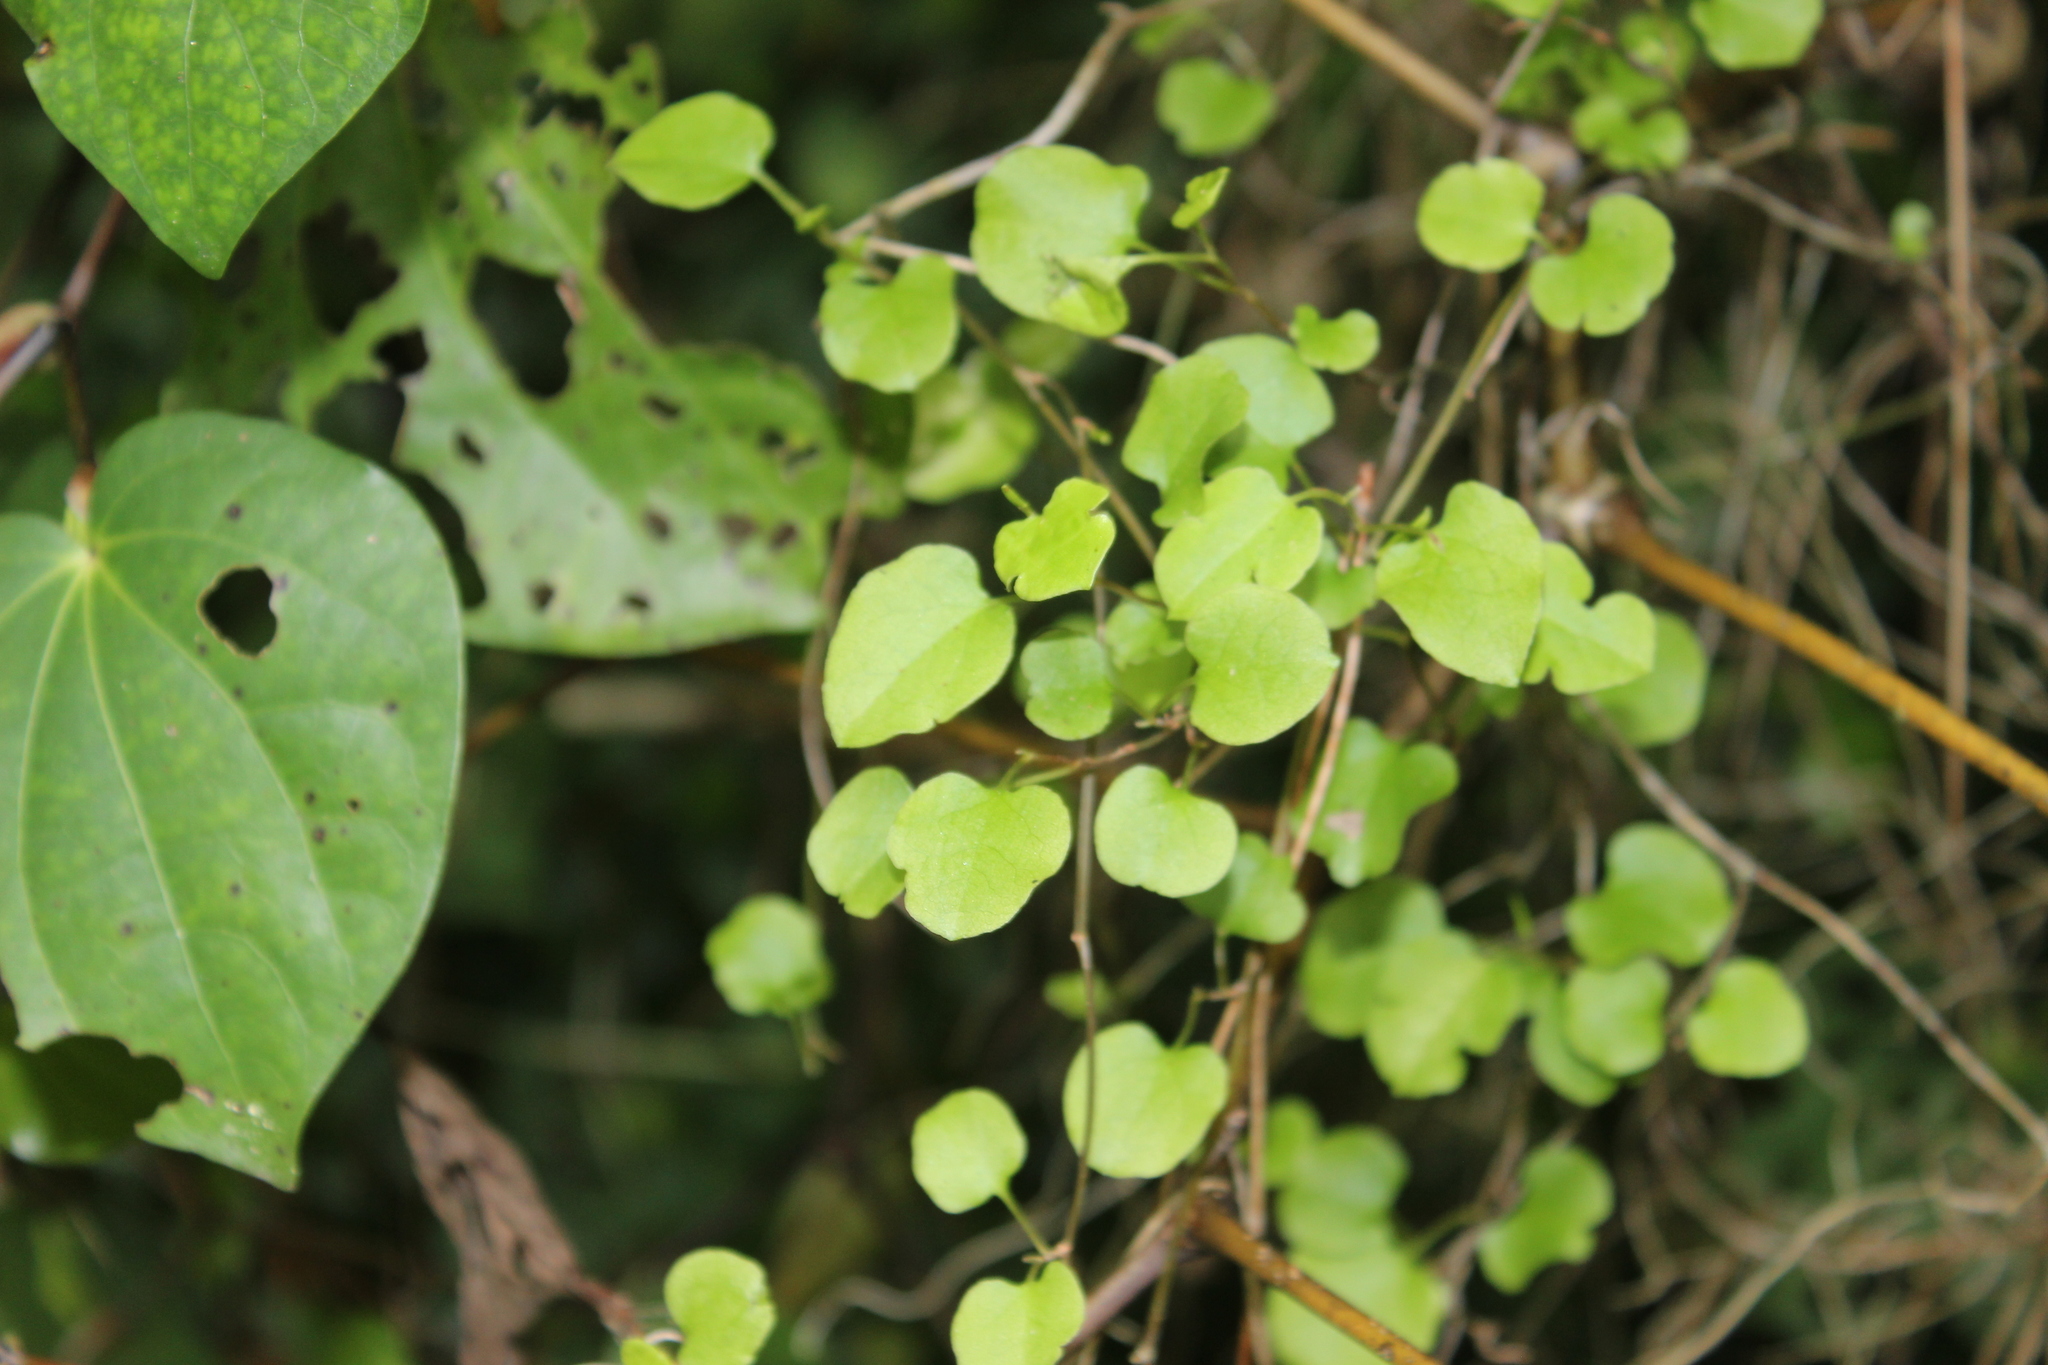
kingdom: Plantae
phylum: Tracheophyta
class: Magnoliopsida
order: Caryophyllales
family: Polygonaceae
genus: Muehlenbeckia
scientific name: Muehlenbeckia australis
